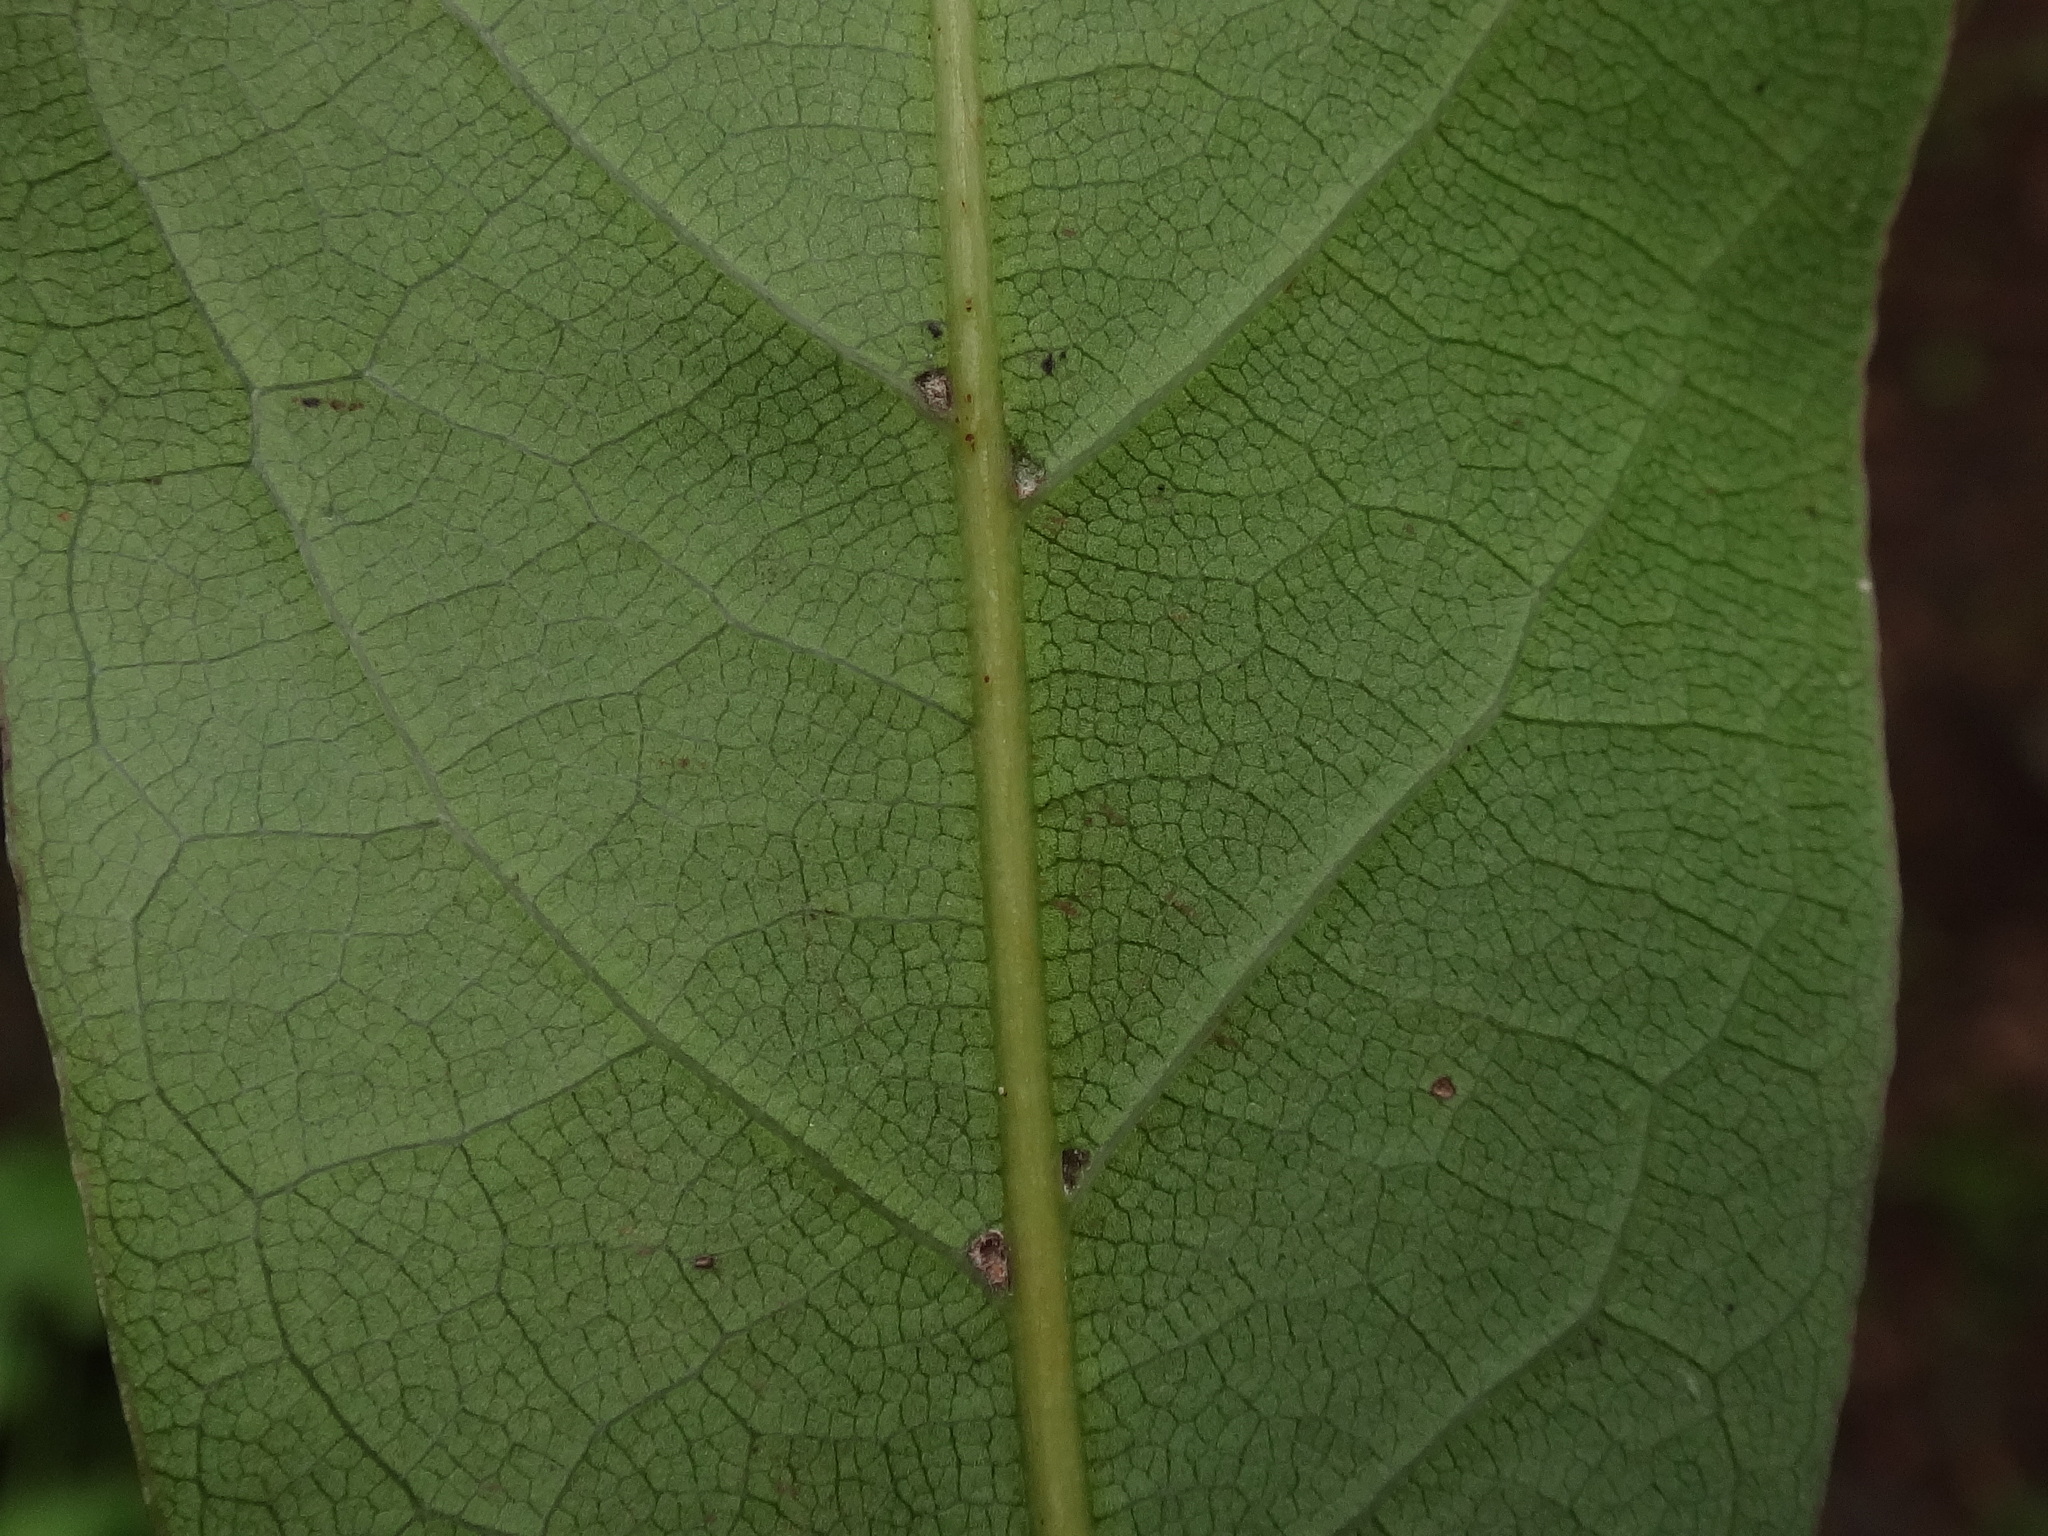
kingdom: Plantae
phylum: Tracheophyta
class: Magnoliopsida
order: Laurales
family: Lauraceae
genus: Laurus
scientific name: Laurus novocanariensis
